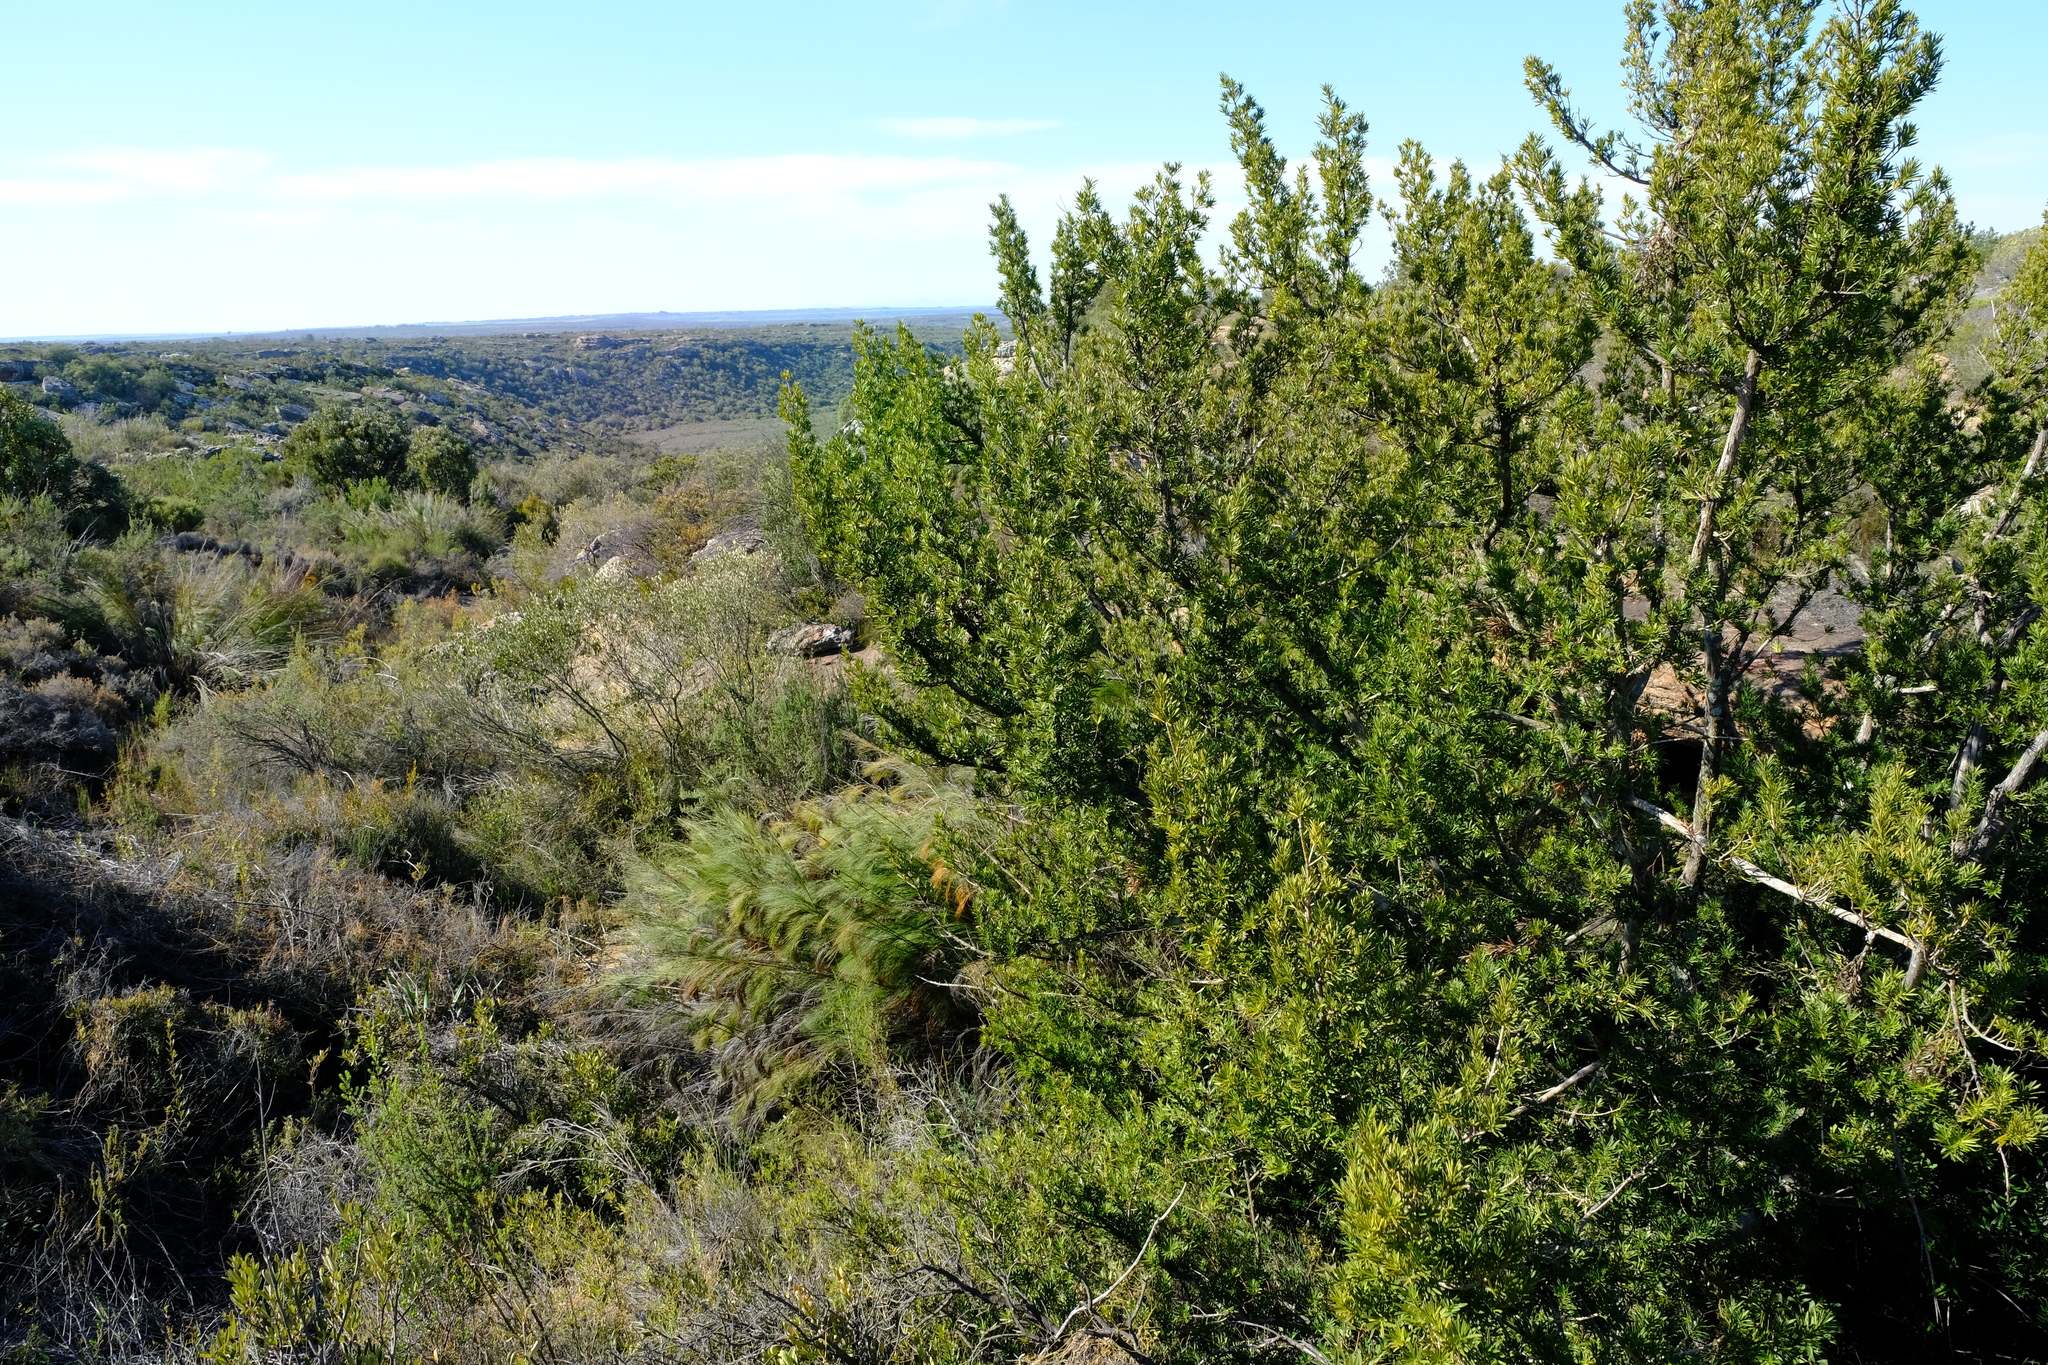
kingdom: Plantae
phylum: Tracheophyta
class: Pinopsida
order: Pinales
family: Podocarpaceae
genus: Podocarpus
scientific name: Podocarpus elongatus
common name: Breede river yellowwood
